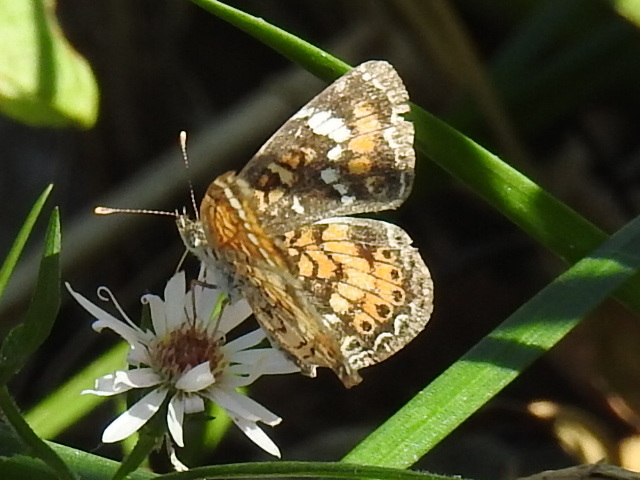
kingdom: Animalia
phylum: Arthropoda
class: Insecta
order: Lepidoptera
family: Nymphalidae
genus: Phyciodes
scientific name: Phyciodes phaon
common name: Phaon crescent
